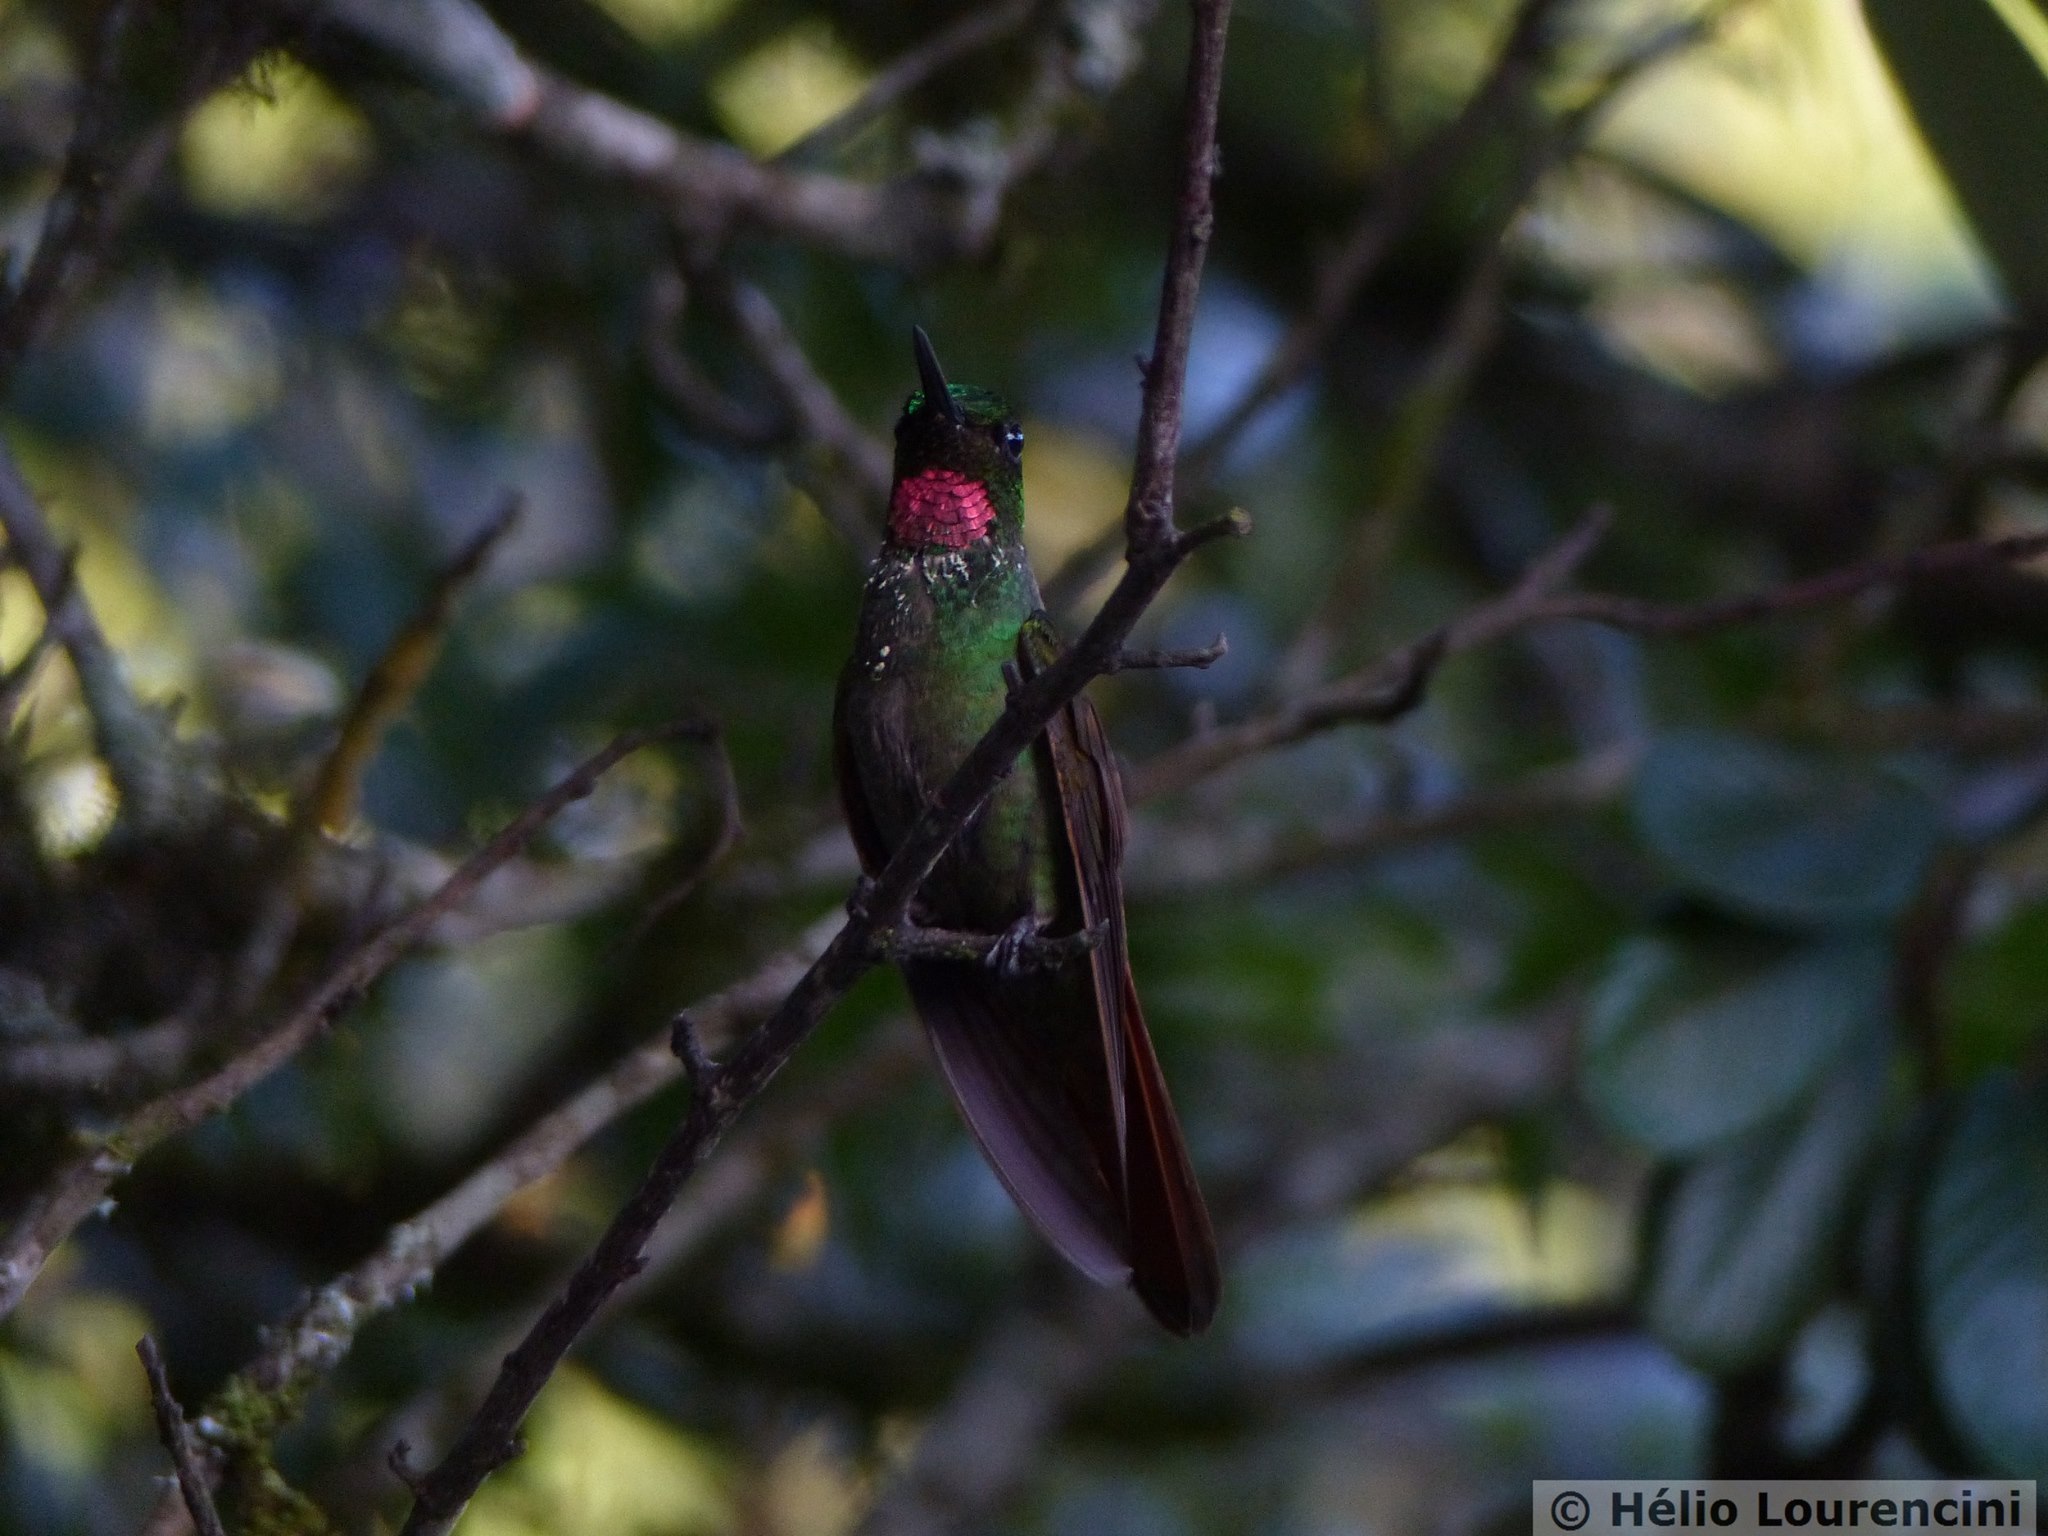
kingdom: Animalia
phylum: Chordata
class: Aves
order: Apodiformes
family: Trochilidae
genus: Clytolaema
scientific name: Clytolaema rubricauda
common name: Brazilian ruby
